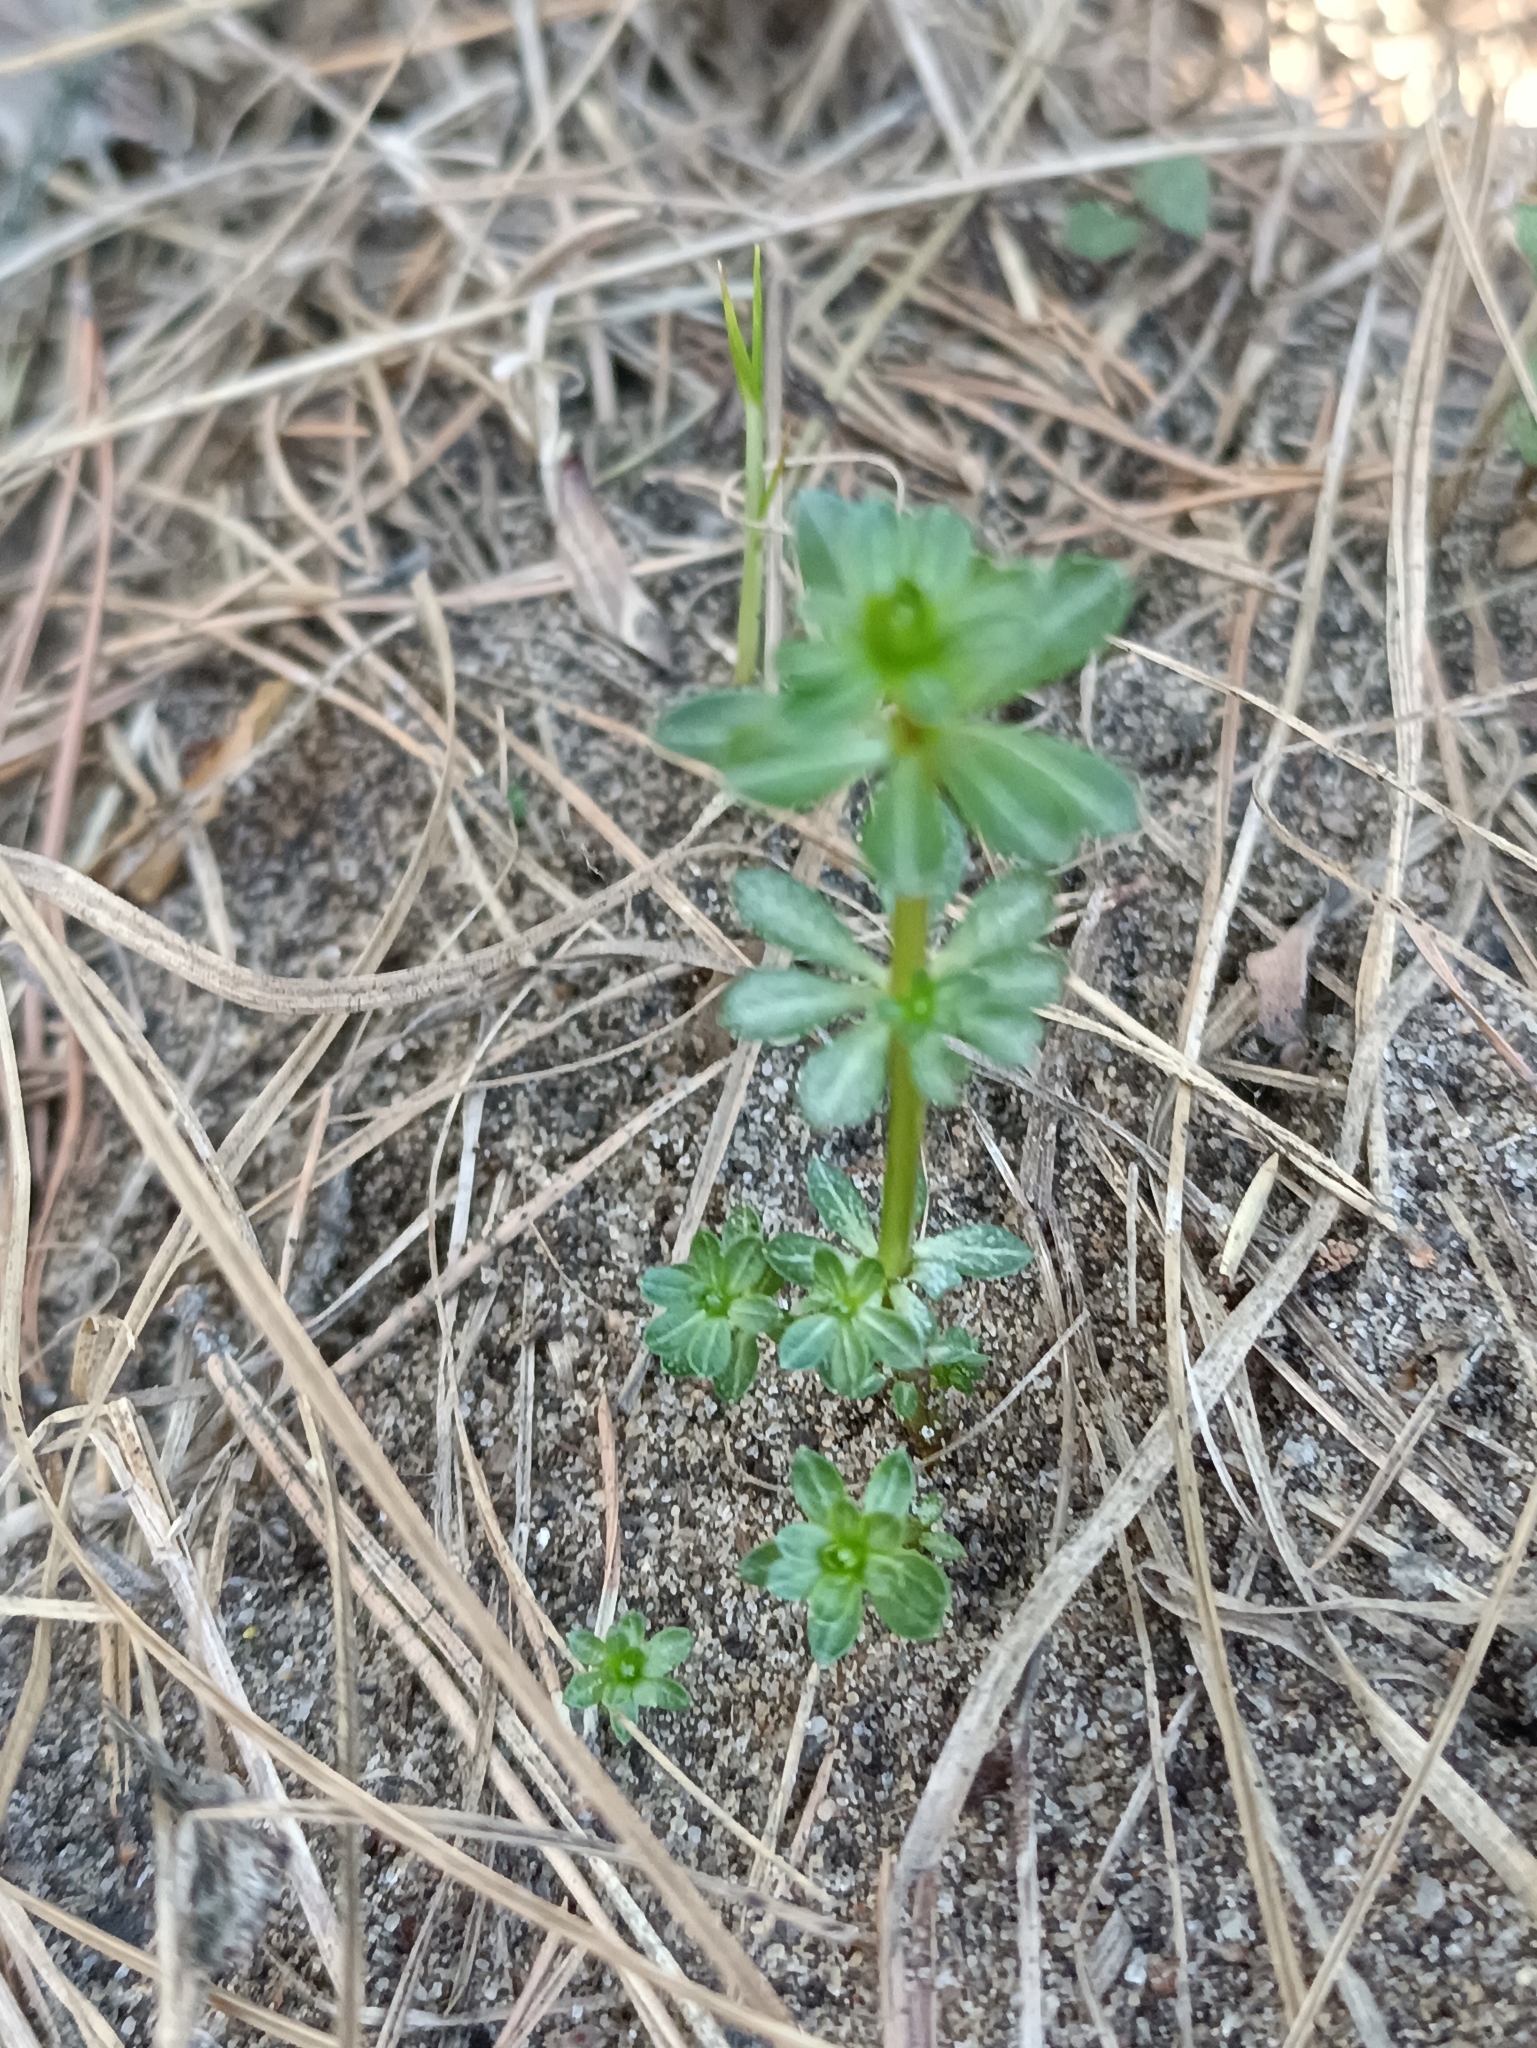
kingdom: Plantae
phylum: Tracheophyta
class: Magnoliopsida
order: Gentianales
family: Rubiaceae
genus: Galium
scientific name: Galium mollugo
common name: Hedge bedstraw
